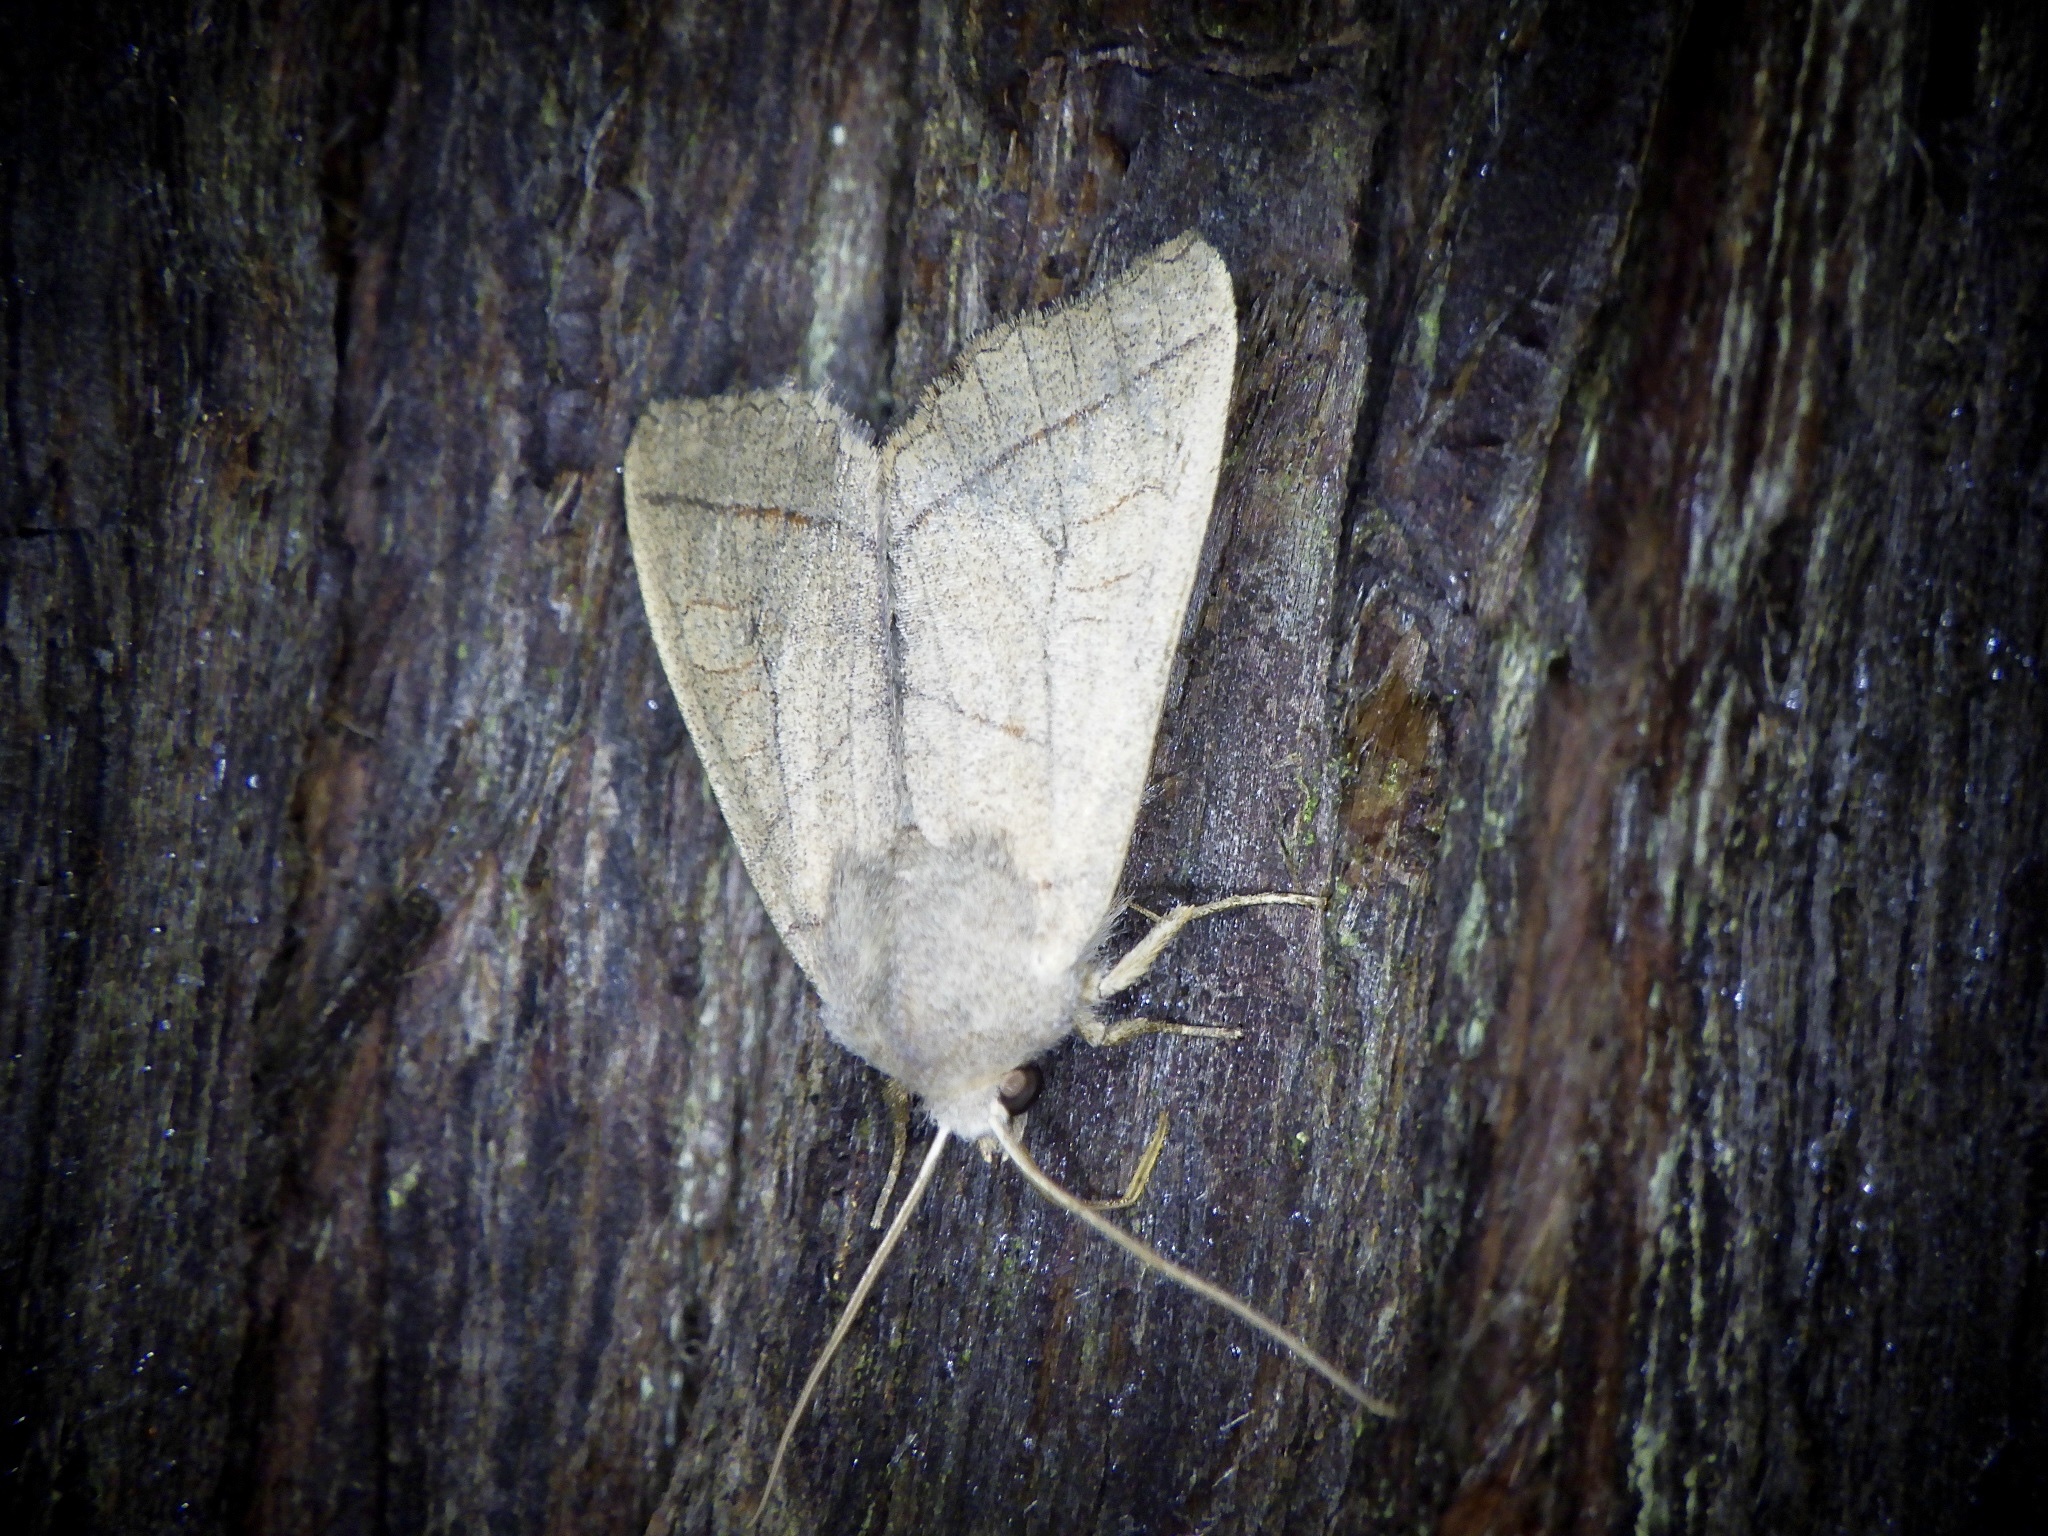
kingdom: Animalia
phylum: Arthropoda
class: Insecta
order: Lepidoptera
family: Noctuidae
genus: Telorta
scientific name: Telorta divergens
